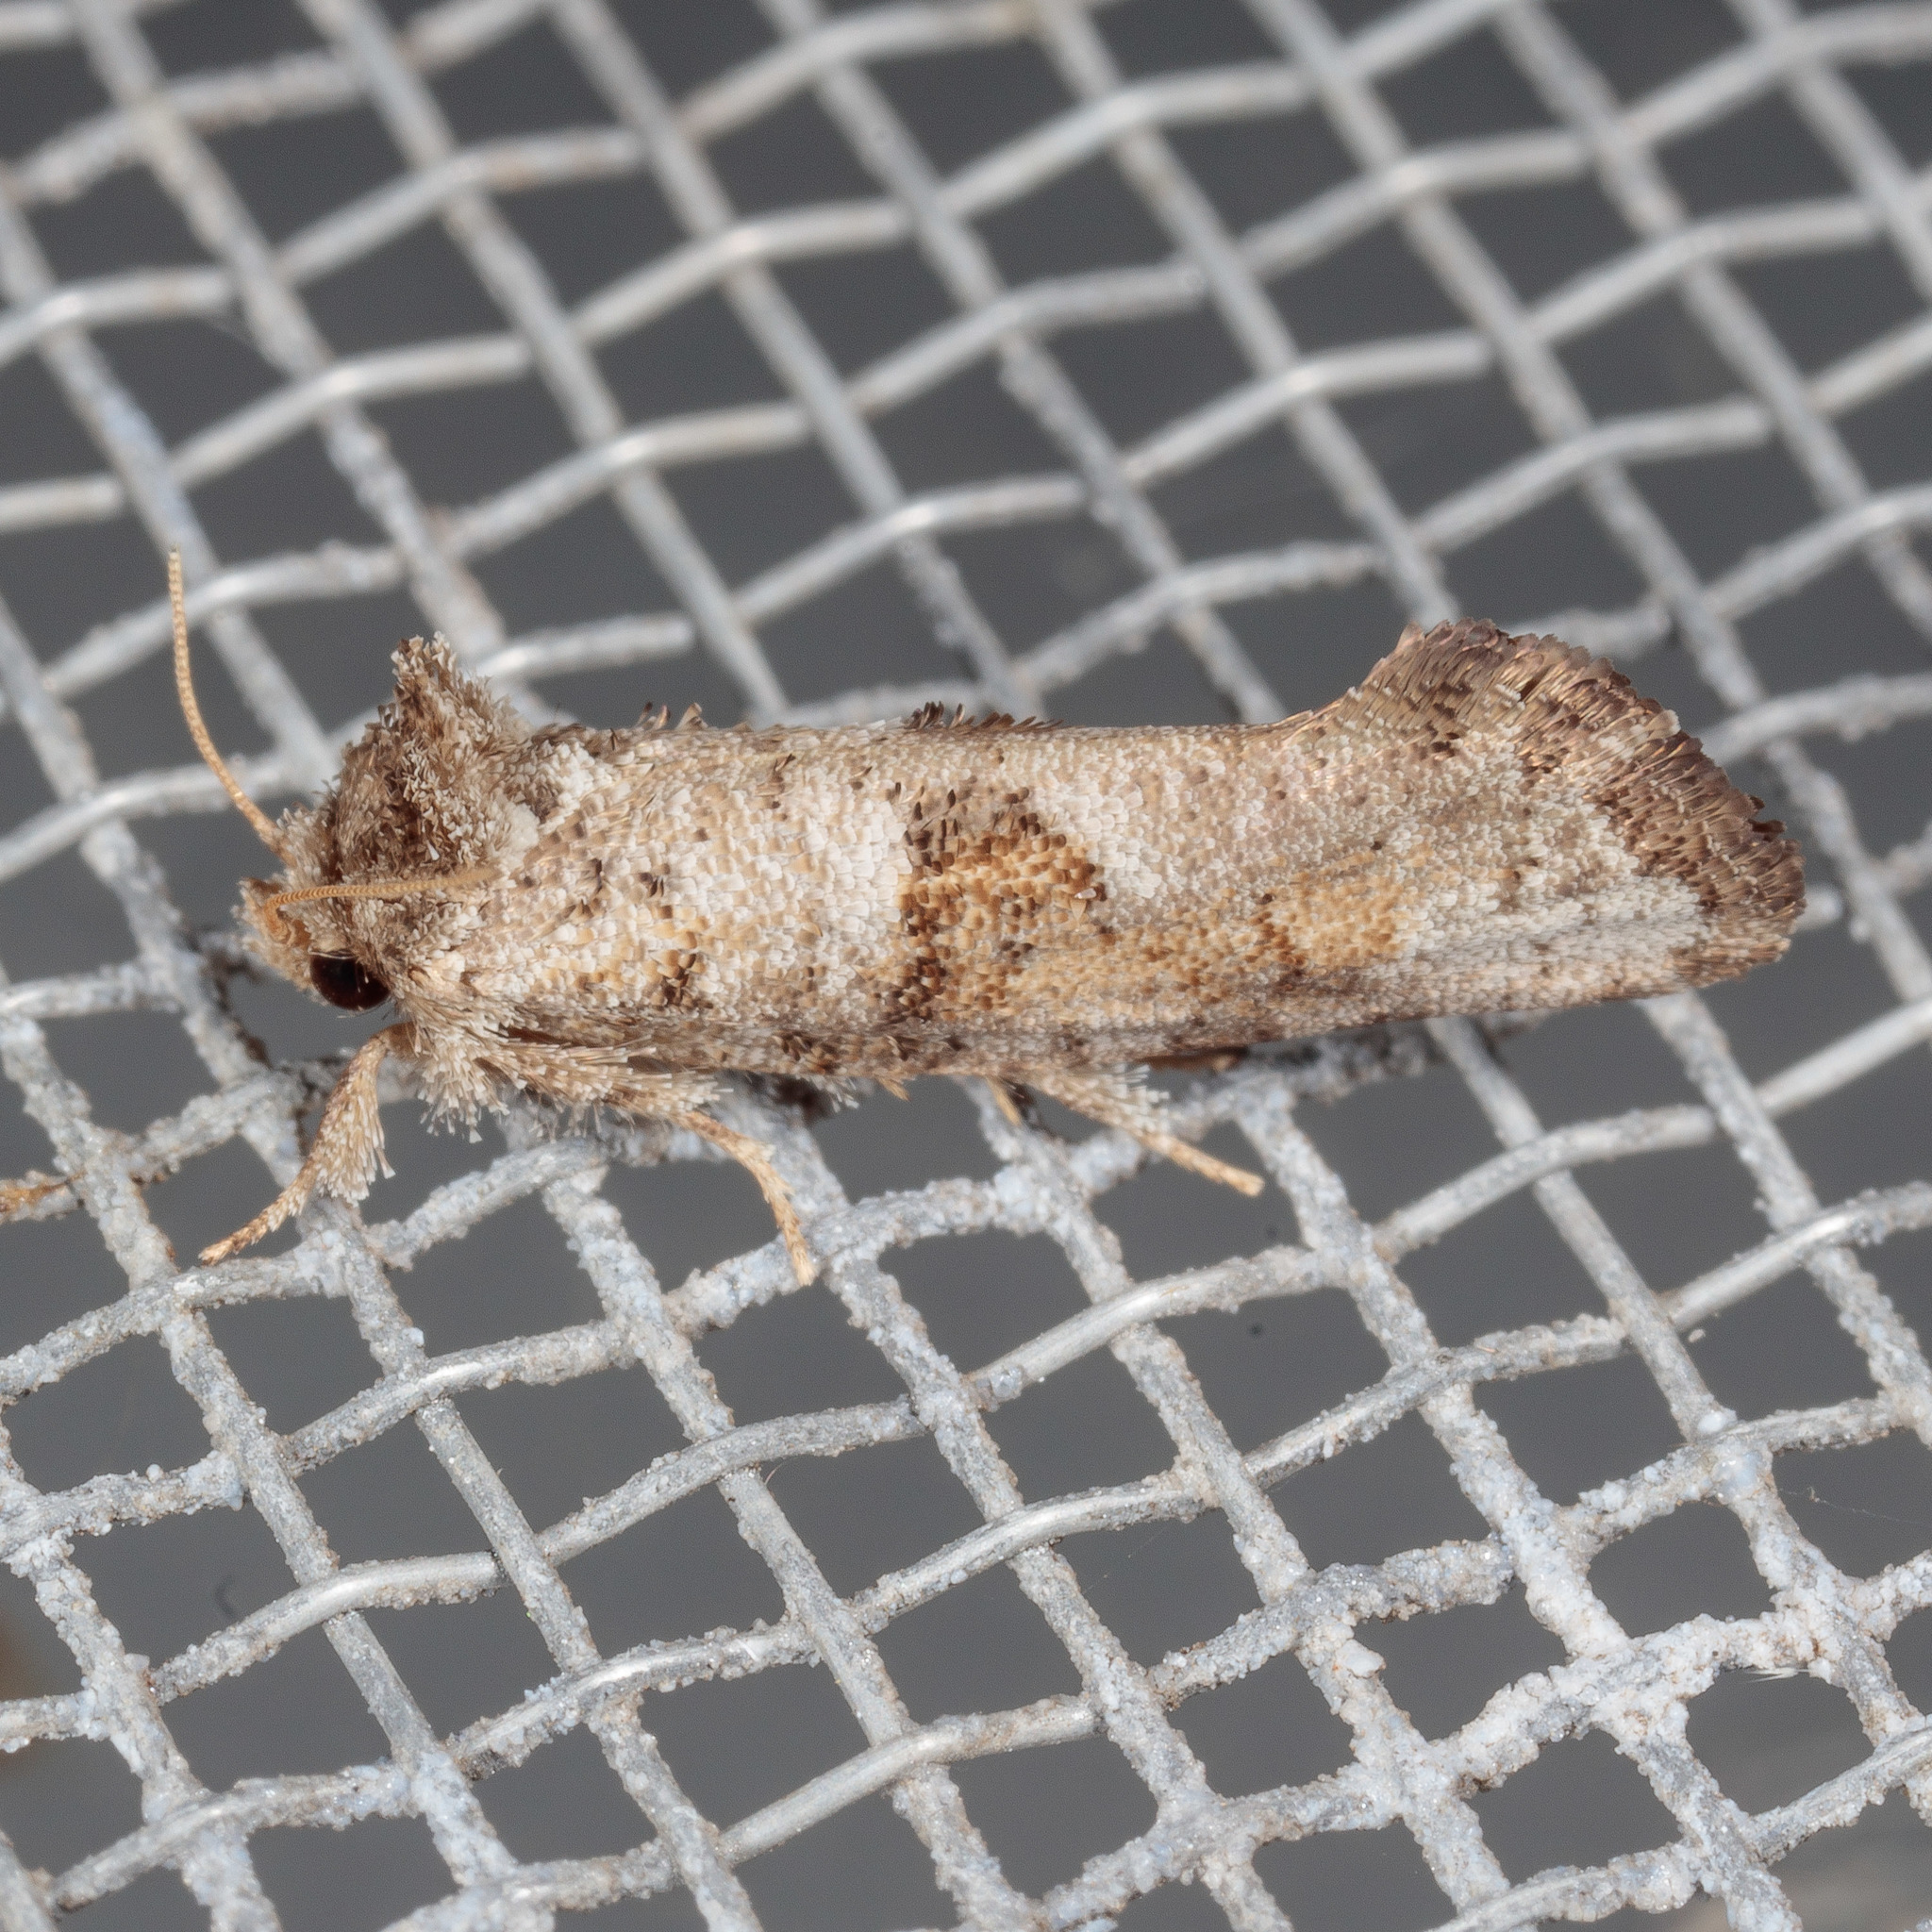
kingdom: Animalia
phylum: Arthropoda
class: Insecta
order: Lepidoptera
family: Tineidae
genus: Acrolophus
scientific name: Acrolophus piger
